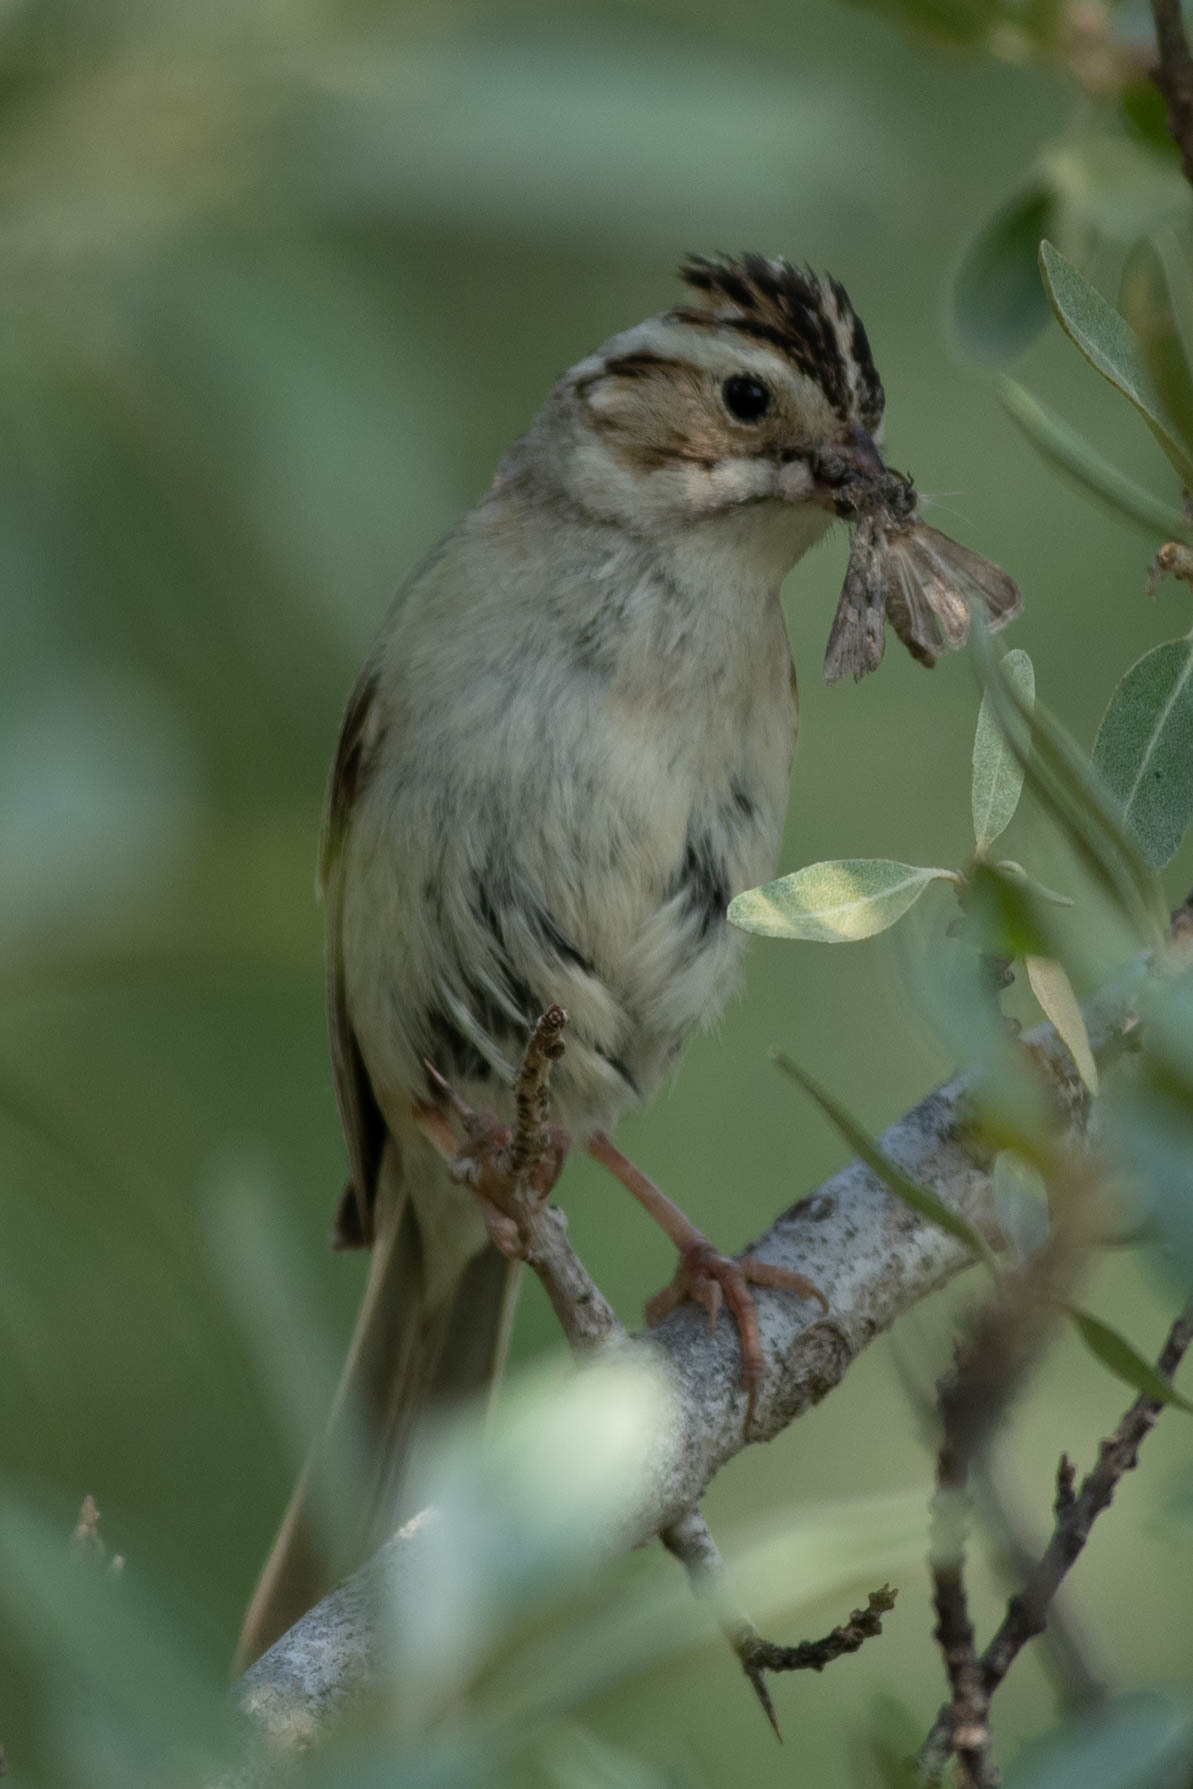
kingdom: Animalia
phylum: Chordata
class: Aves
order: Passeriformes
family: Passerellidae
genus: Spizella
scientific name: Spizella pallida
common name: Clay-colored sparrow
